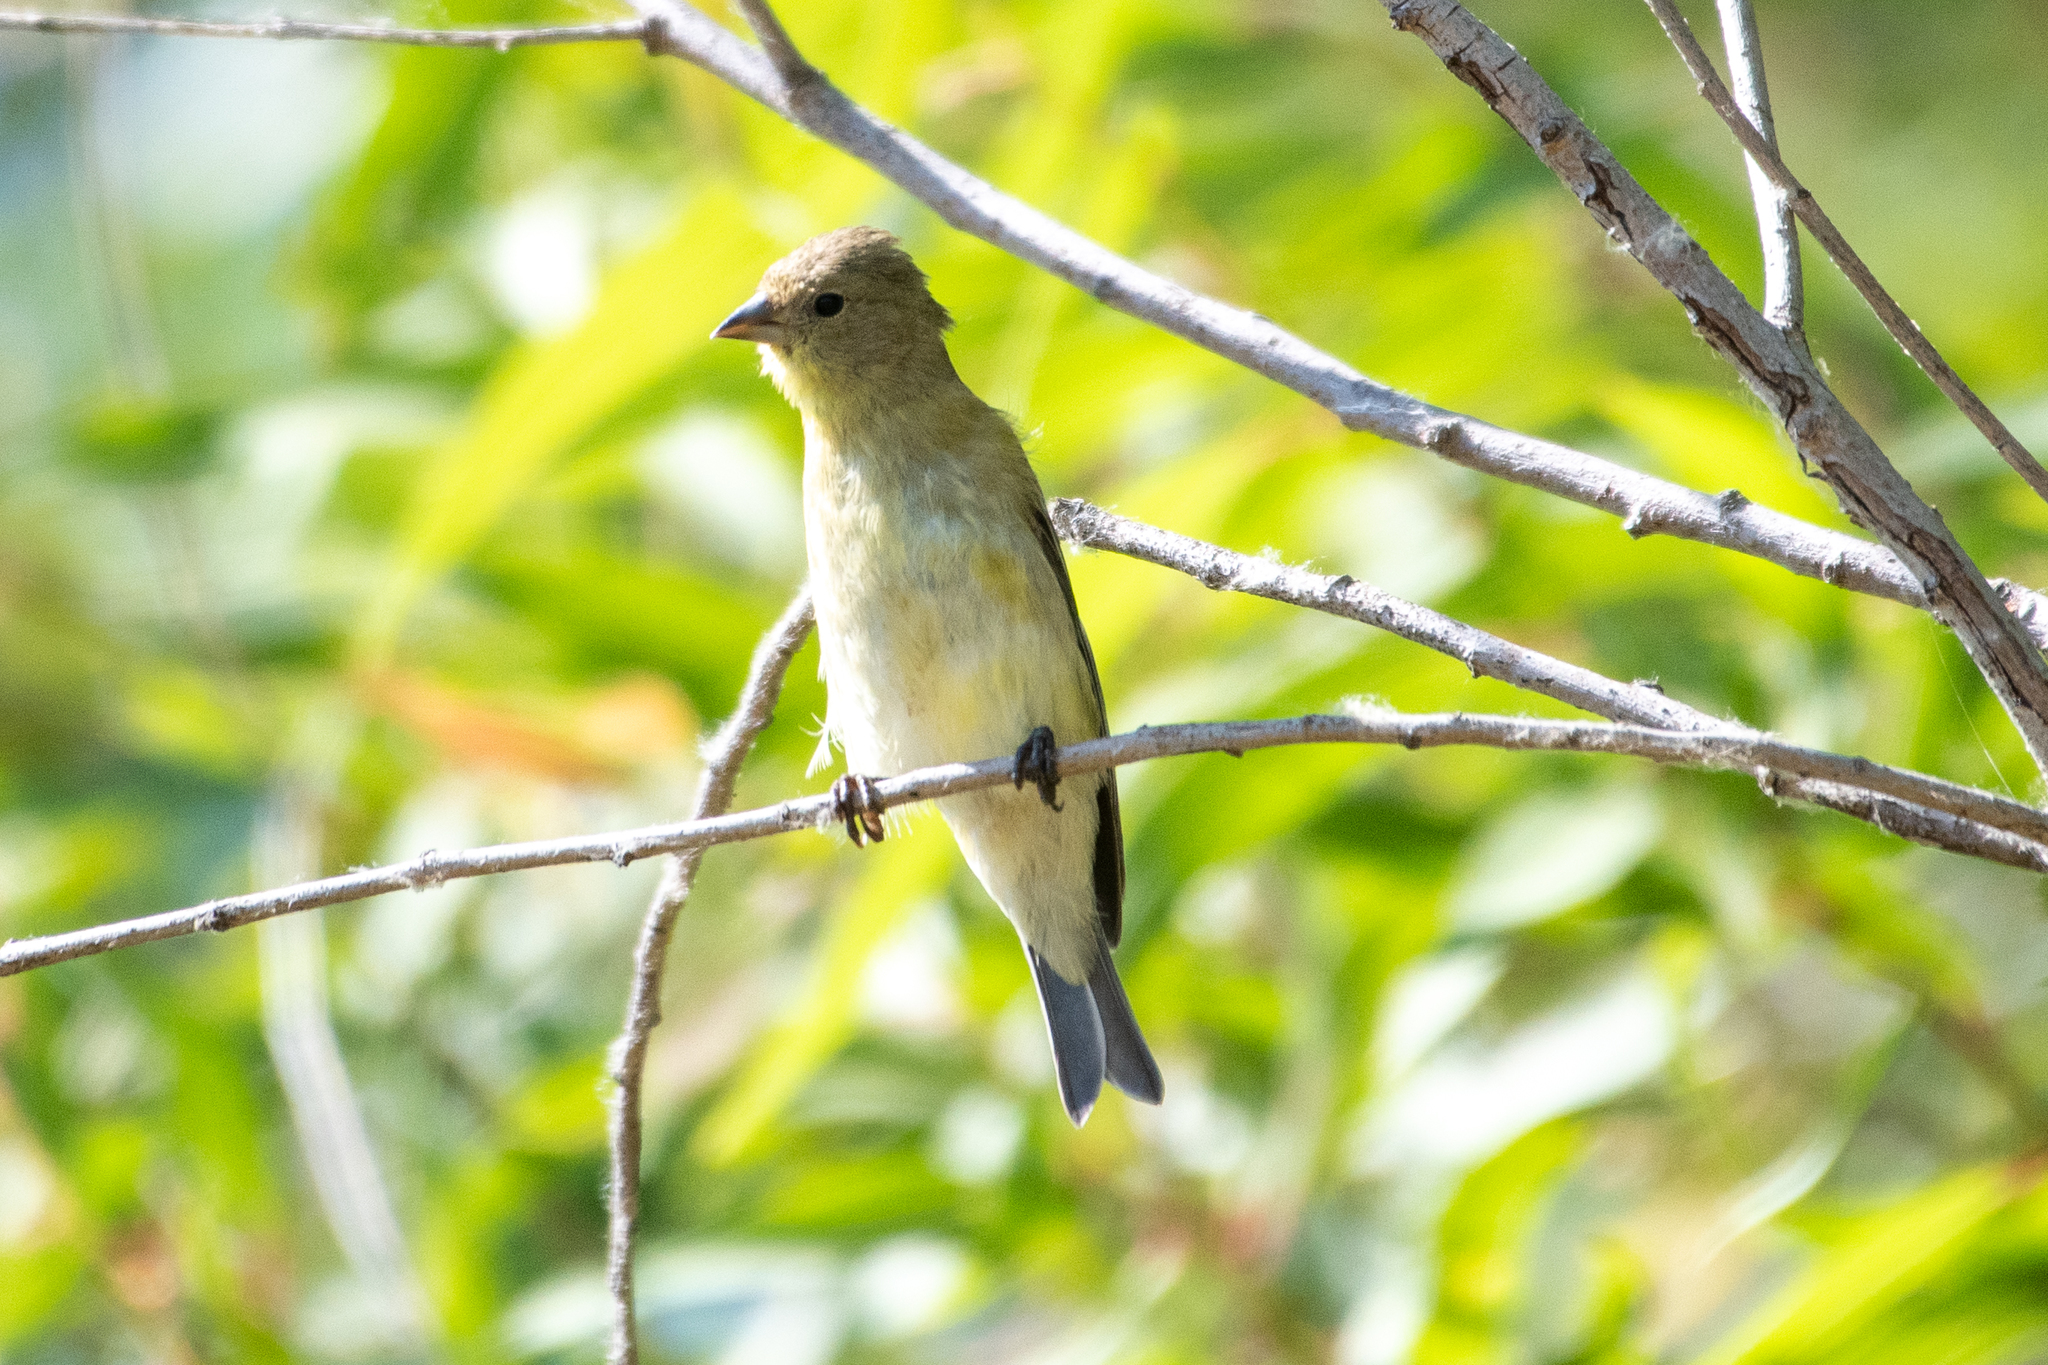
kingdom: Animalia
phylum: Chordata
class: Aves
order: Passeriformes
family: Fringillidae
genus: Spinus
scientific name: Spinus psaltria
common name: Lesser goldfinch
